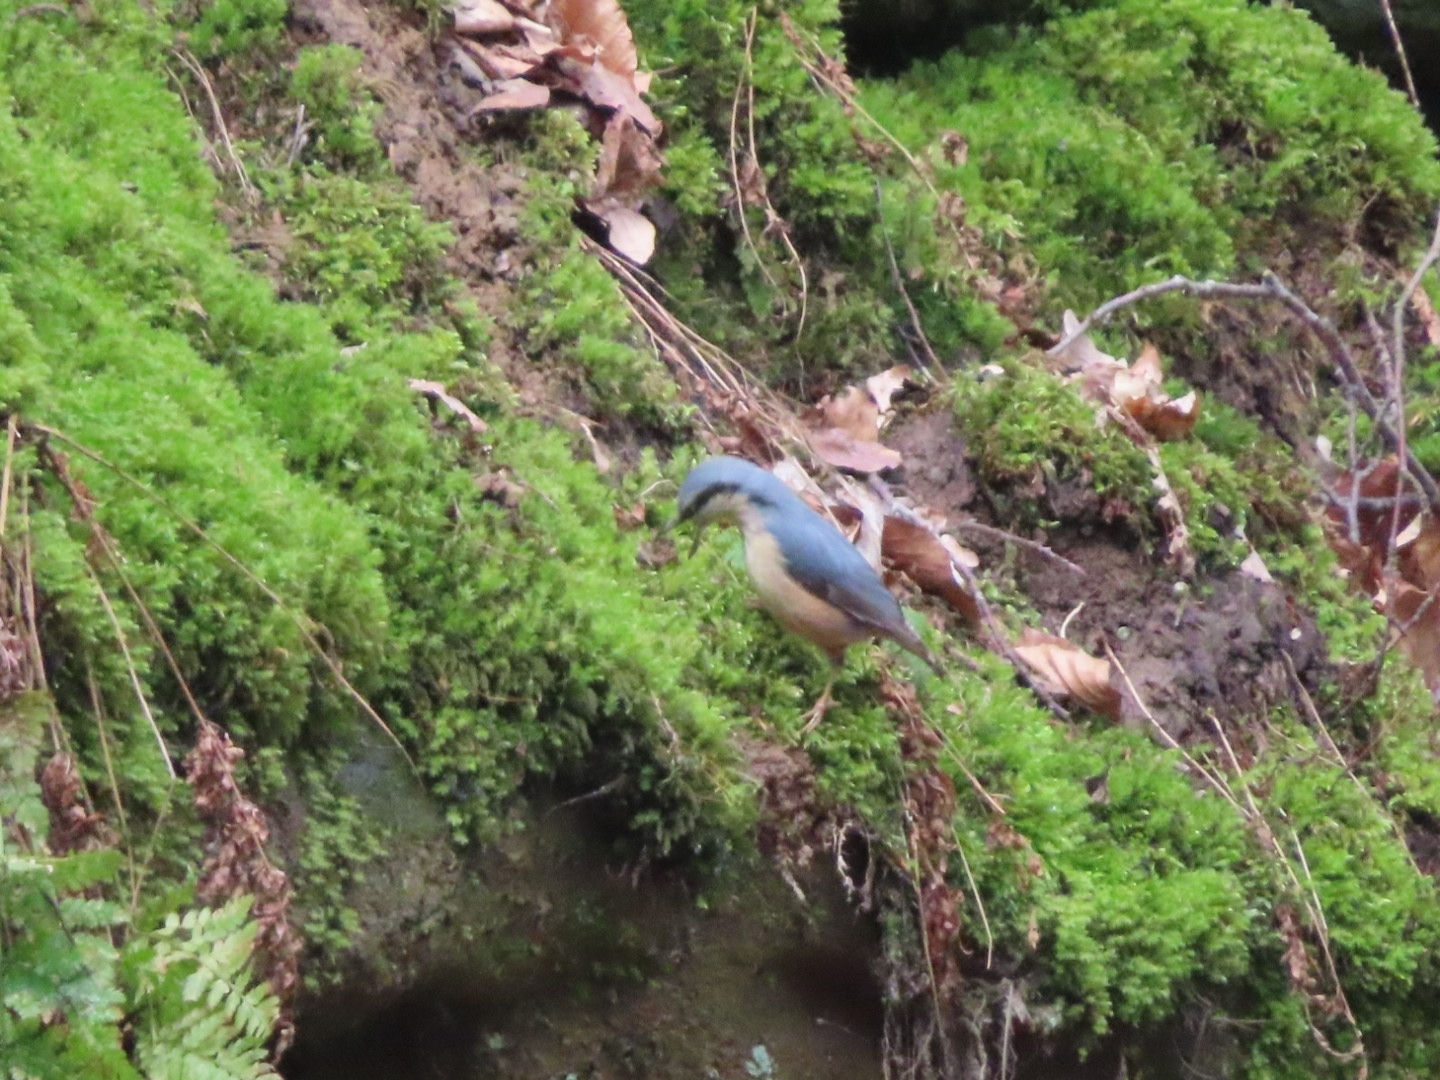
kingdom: Animalia
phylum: Chordata
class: Aves
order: Passeriformes
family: Sittidae
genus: Sitta
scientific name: Sitta europaea
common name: Eurasian nuthatch
